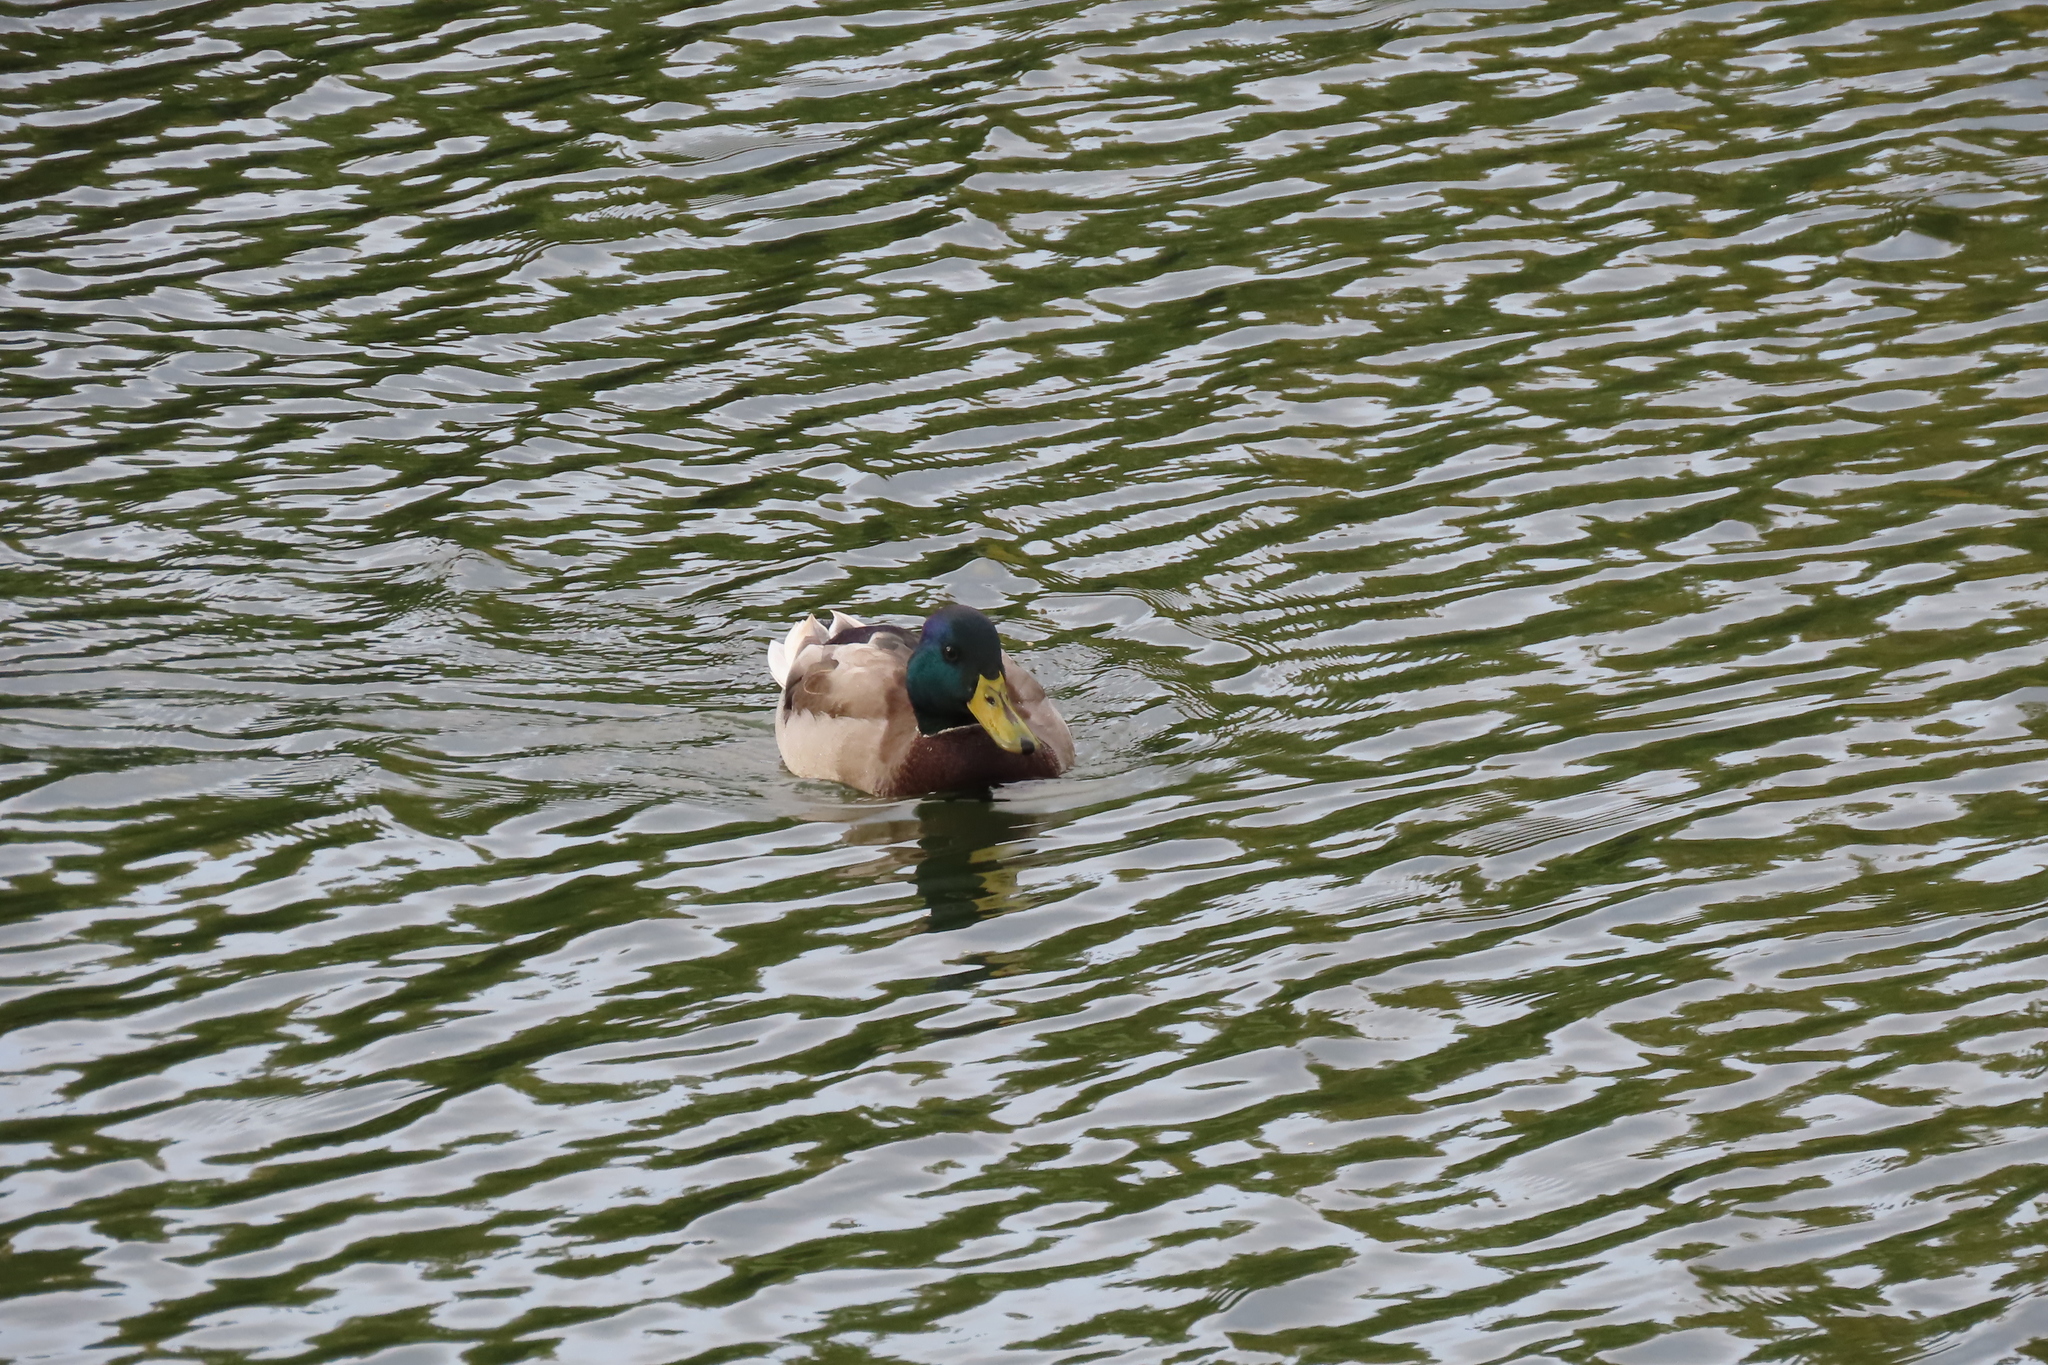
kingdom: Animalia
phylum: Chordata
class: Aves
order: Anseriformes
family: Anatidae
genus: Anas
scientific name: Anas platyrhynchos
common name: Mallard
